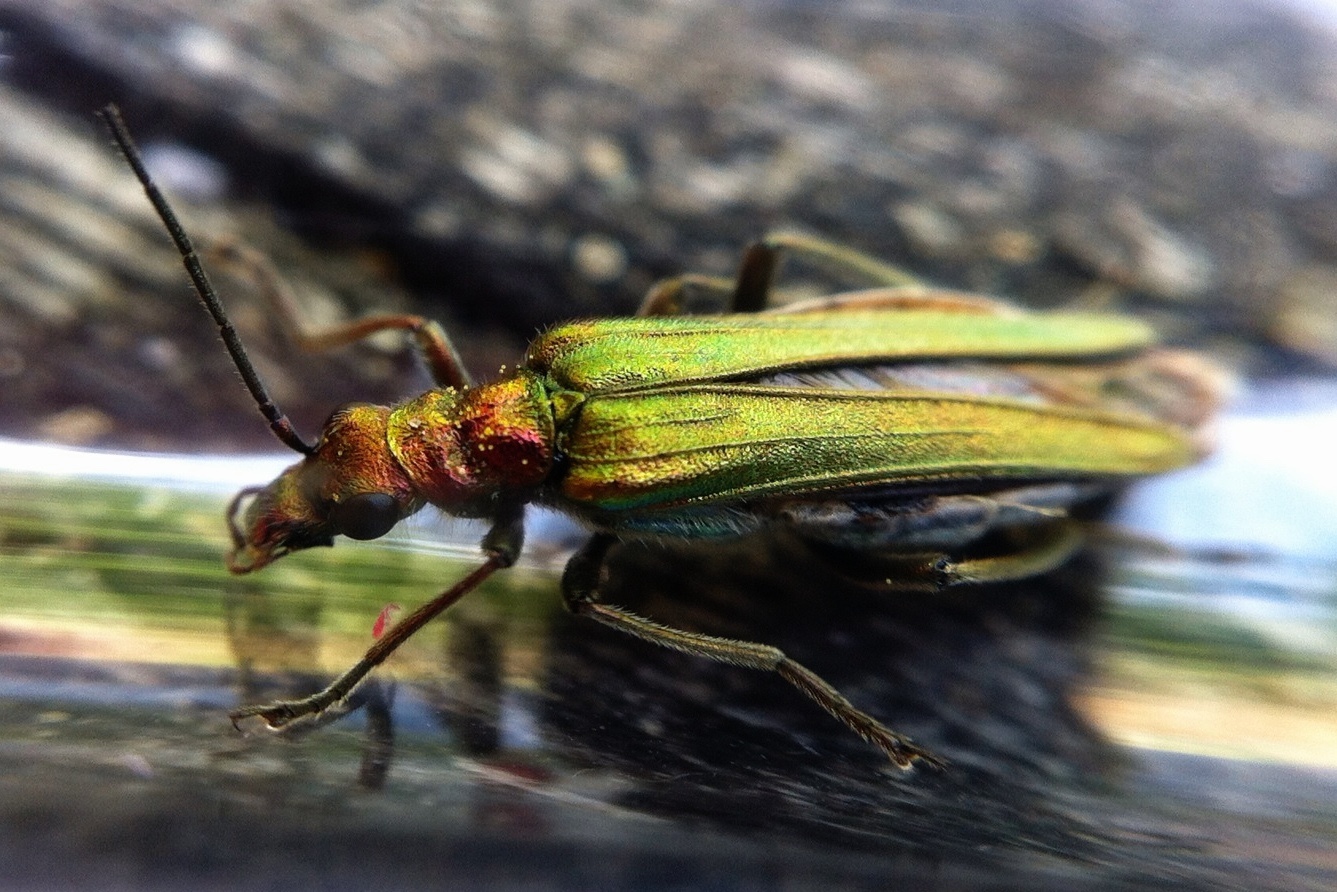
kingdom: Animalia
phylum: Arthropoda
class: Insecta
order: Coleoptera
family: Oedemeridae
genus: Oedemera
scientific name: Oedemera nobilis
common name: Swollen-thighed beetle
